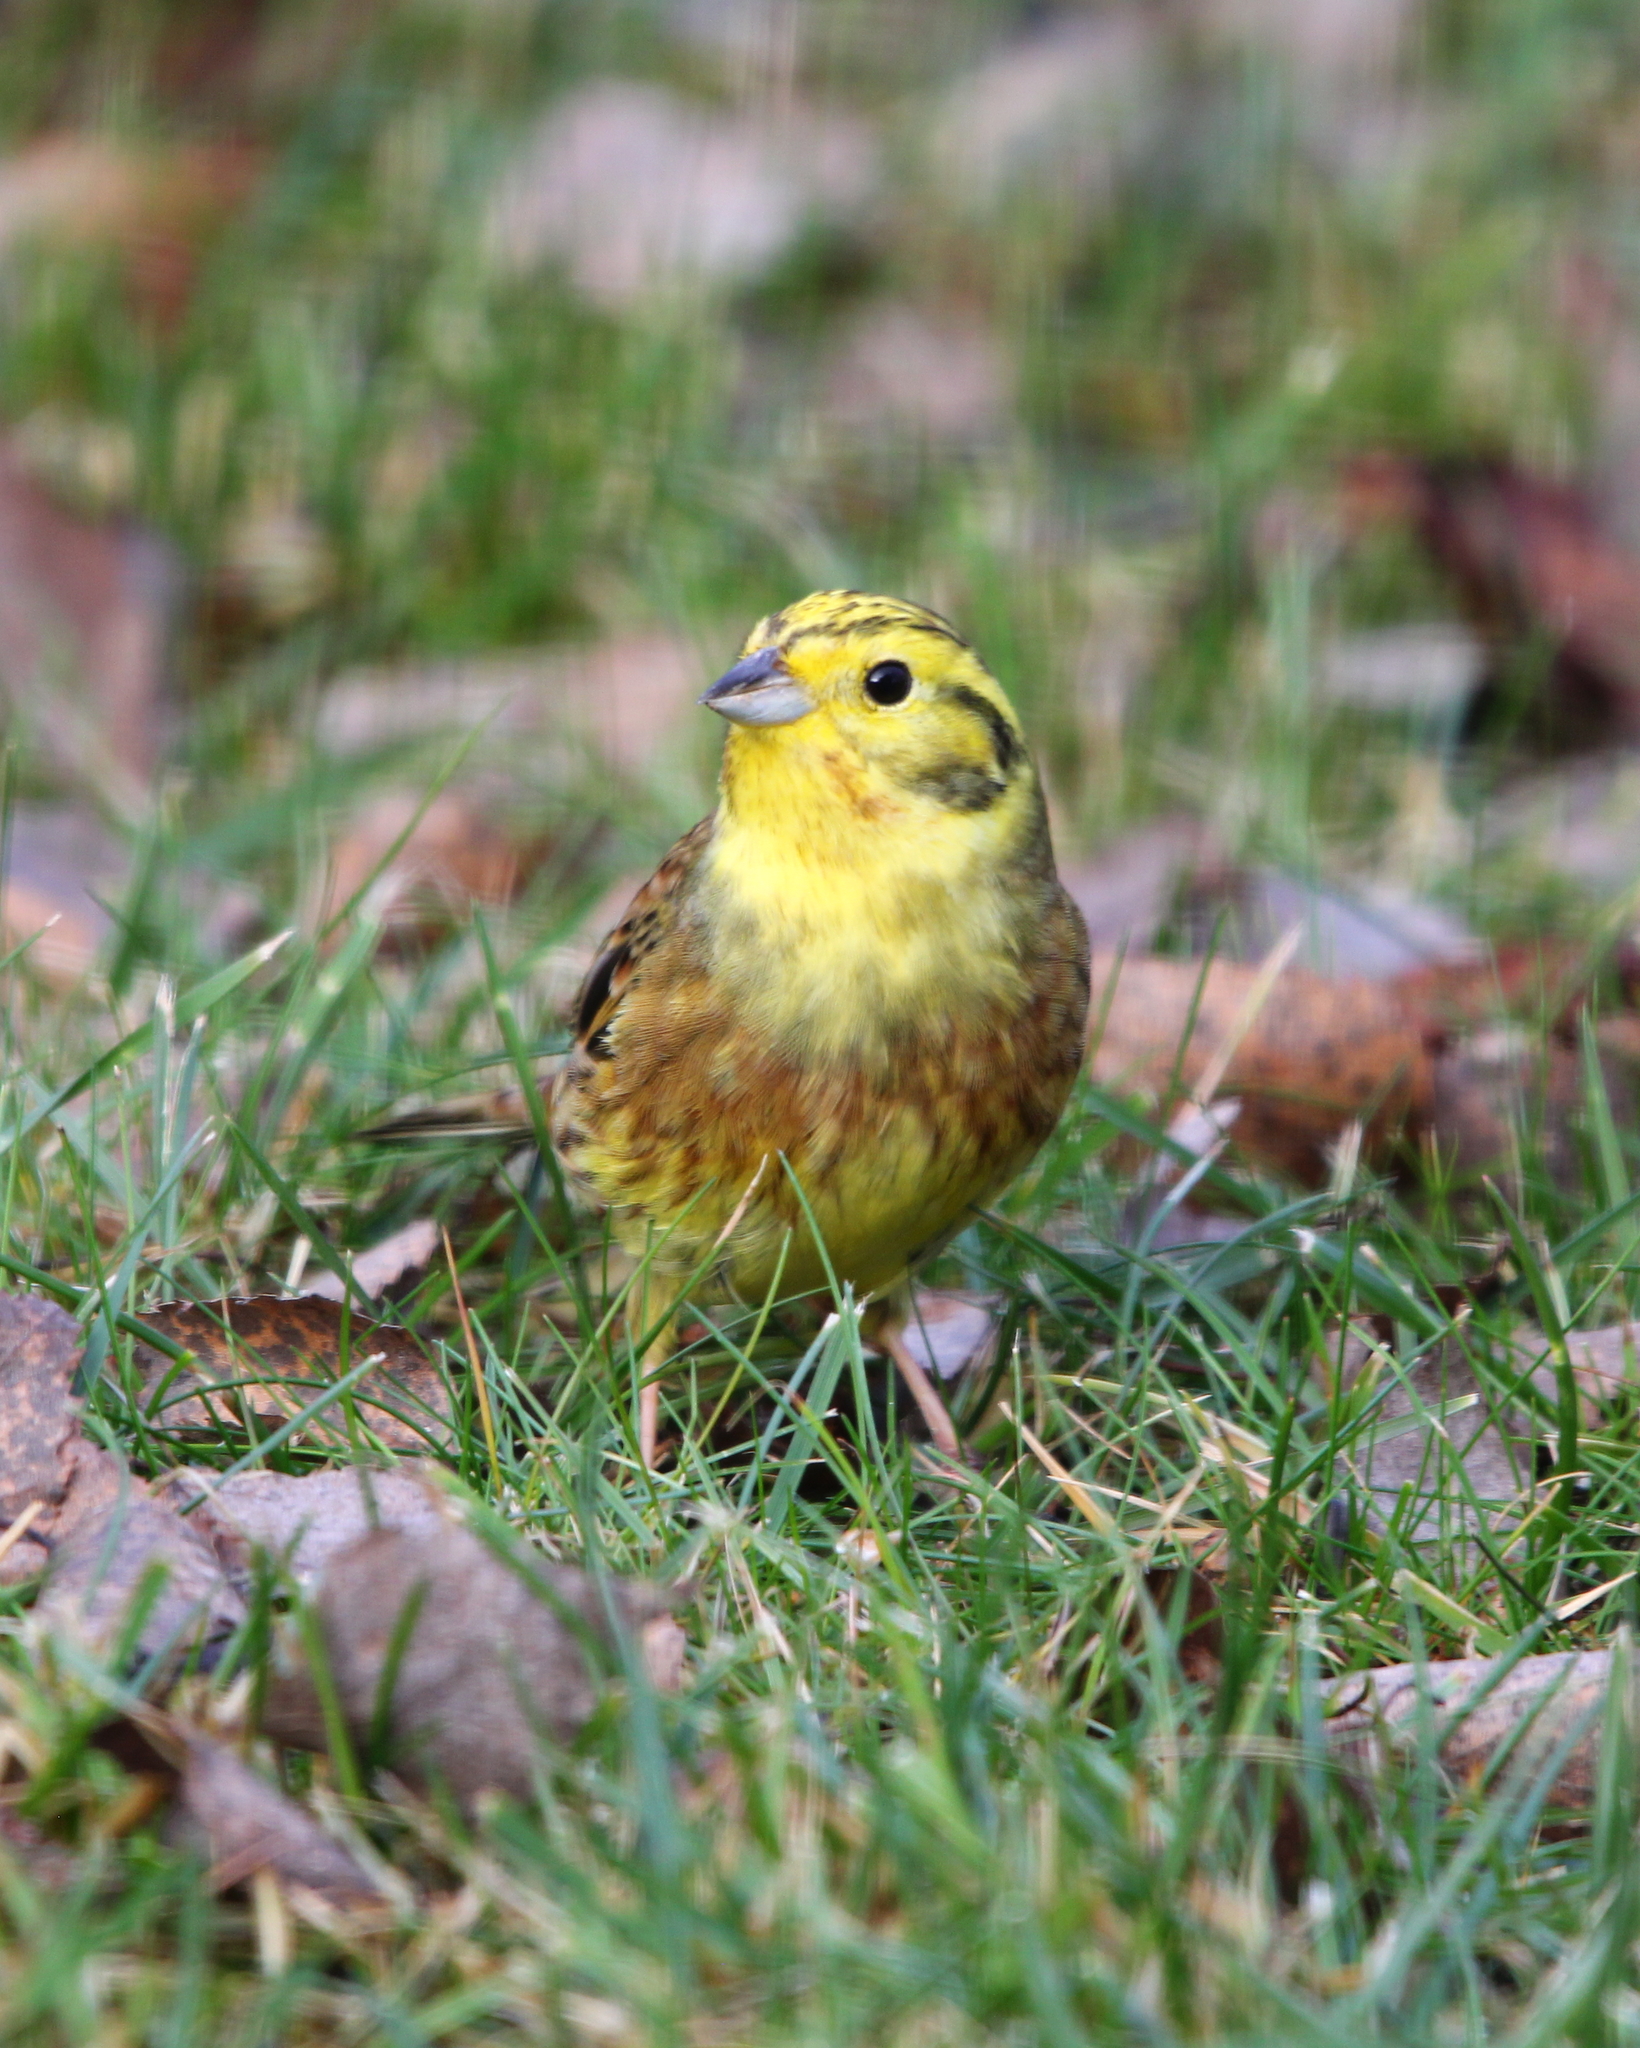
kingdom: Animalia
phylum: Chordata
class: Aves
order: Passeriformes
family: Emberizidae
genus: Emberiza
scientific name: Emberiza citrinella
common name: Yellowhammer
